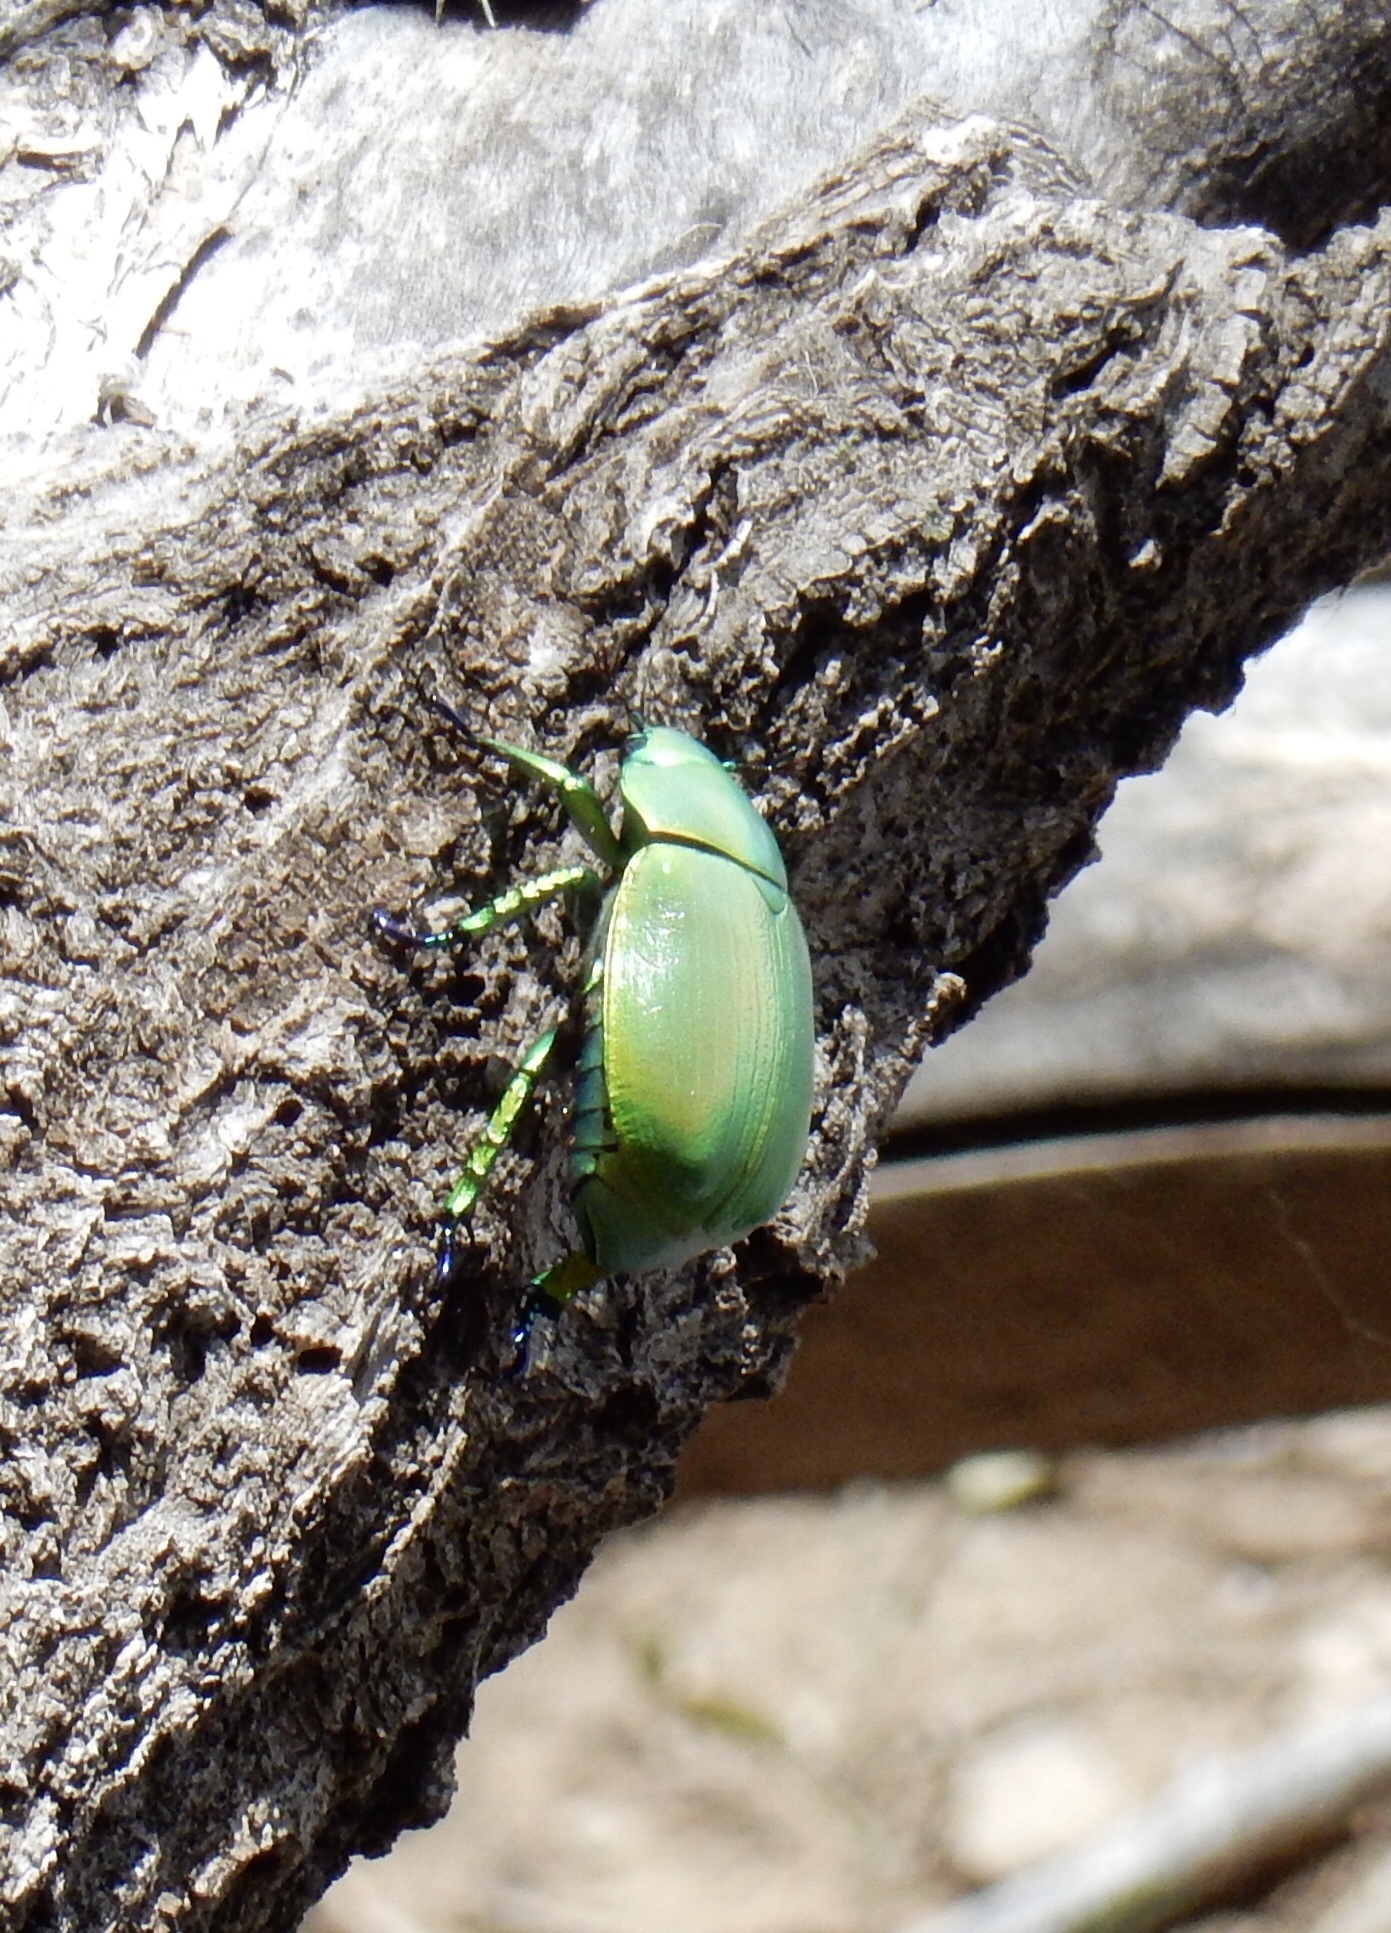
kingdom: Animalia
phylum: Arthropoda
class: Insecta
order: Coleoptera
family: Scarabaeidae
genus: Chrysina
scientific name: Chrysina woodi
